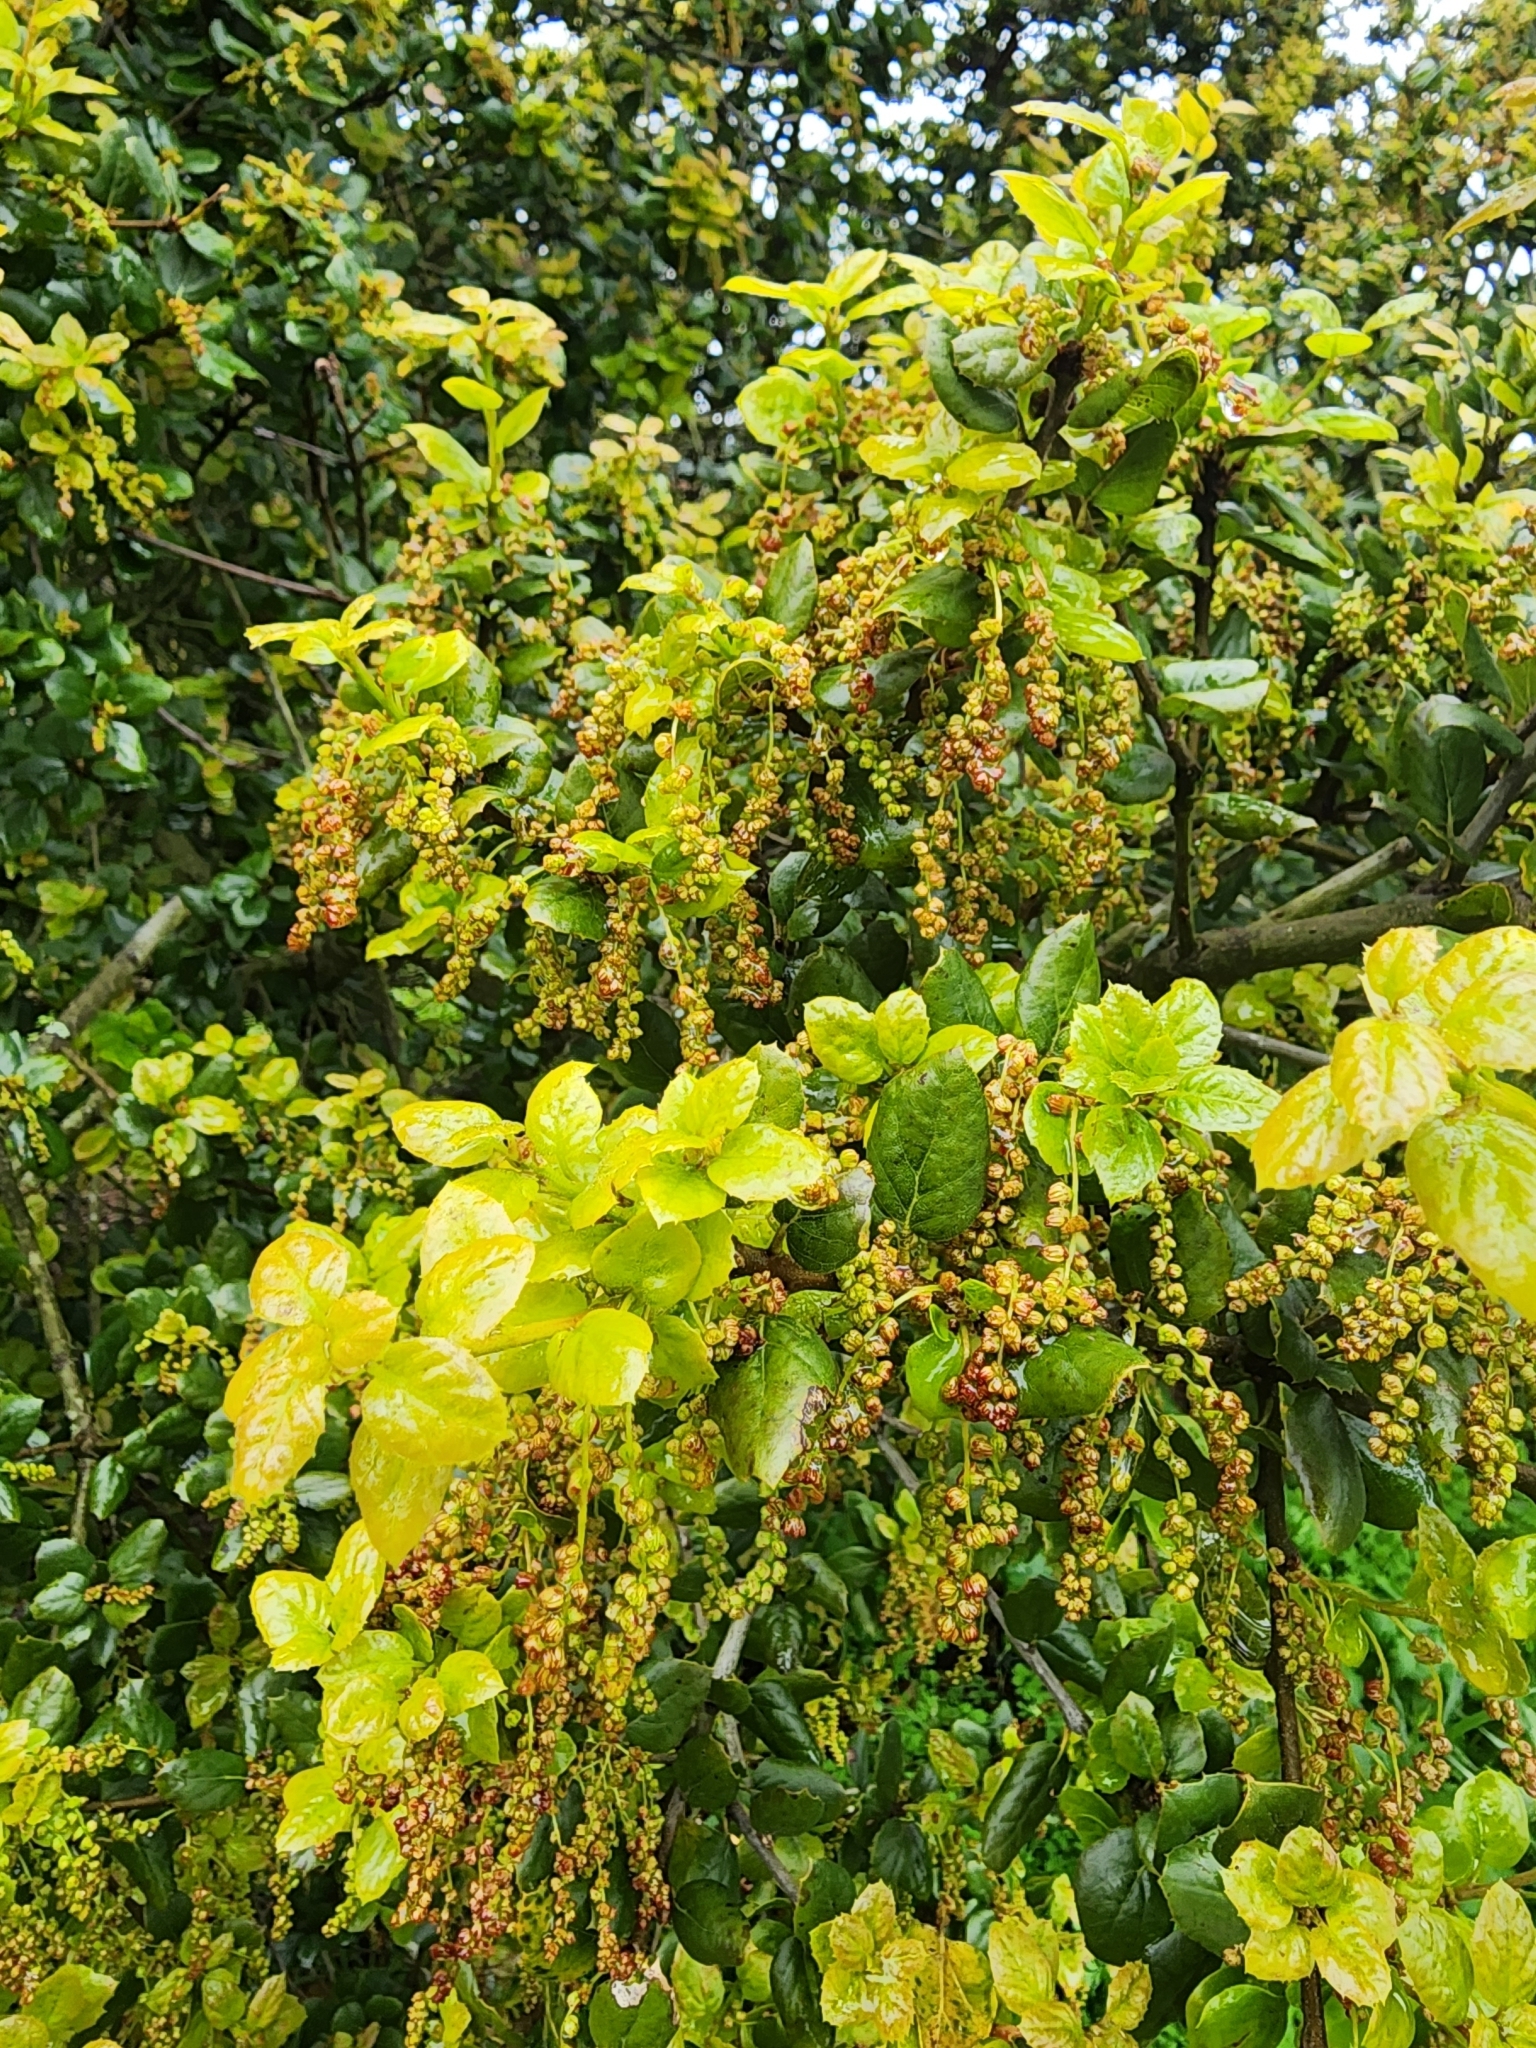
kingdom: Plantae
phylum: Tracheophyta
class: Magnoliopsida
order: Fagales
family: Fagaceae
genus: Quercus
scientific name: Quercus agrifolia
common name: California live oak
